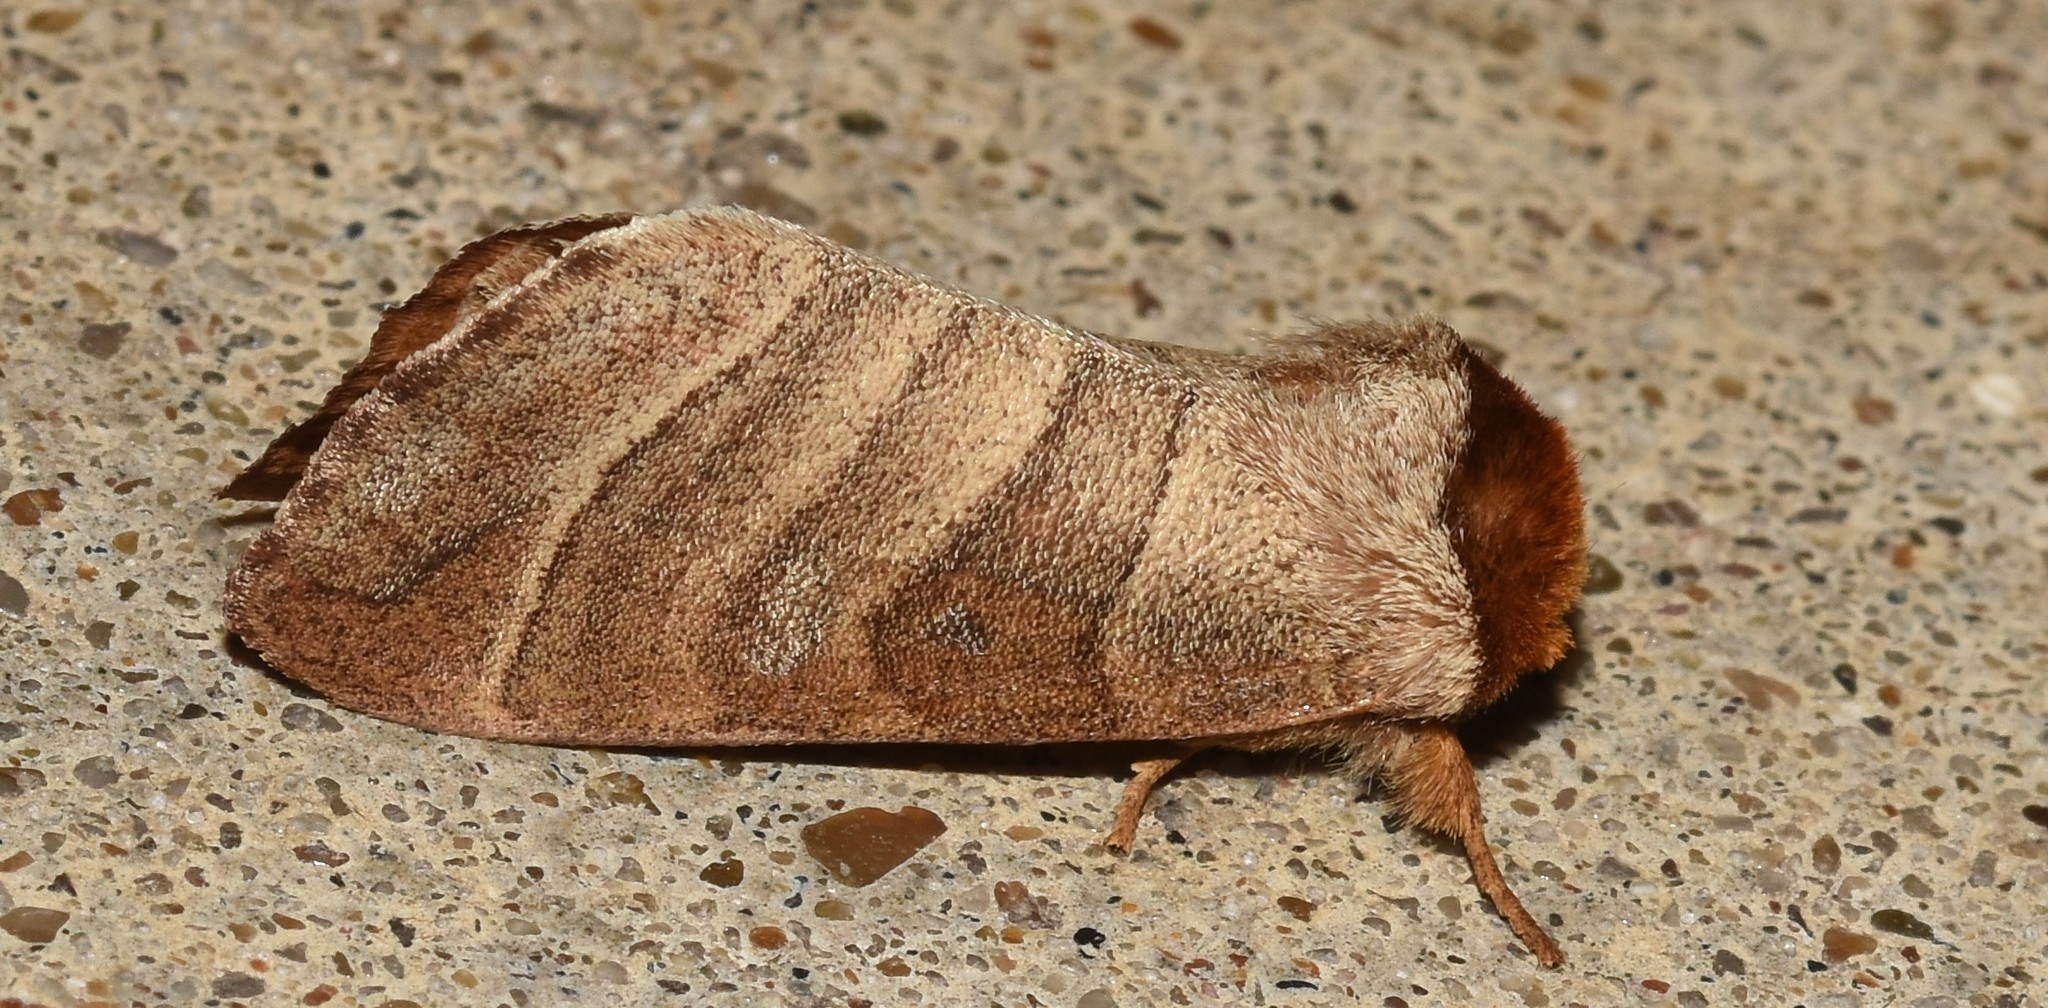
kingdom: Animalia
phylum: Arthropoda
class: Insecta
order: Lepidoptera
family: Notodontidae
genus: Datana
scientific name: Datana integerrima
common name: Walnut caterpillar
